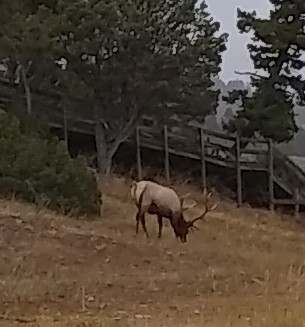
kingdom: Animalia
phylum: Chordata
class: Mammalia
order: Artiodactyla
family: Cervidae
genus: Cervus
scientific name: Cervus elaphus
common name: Red deer
